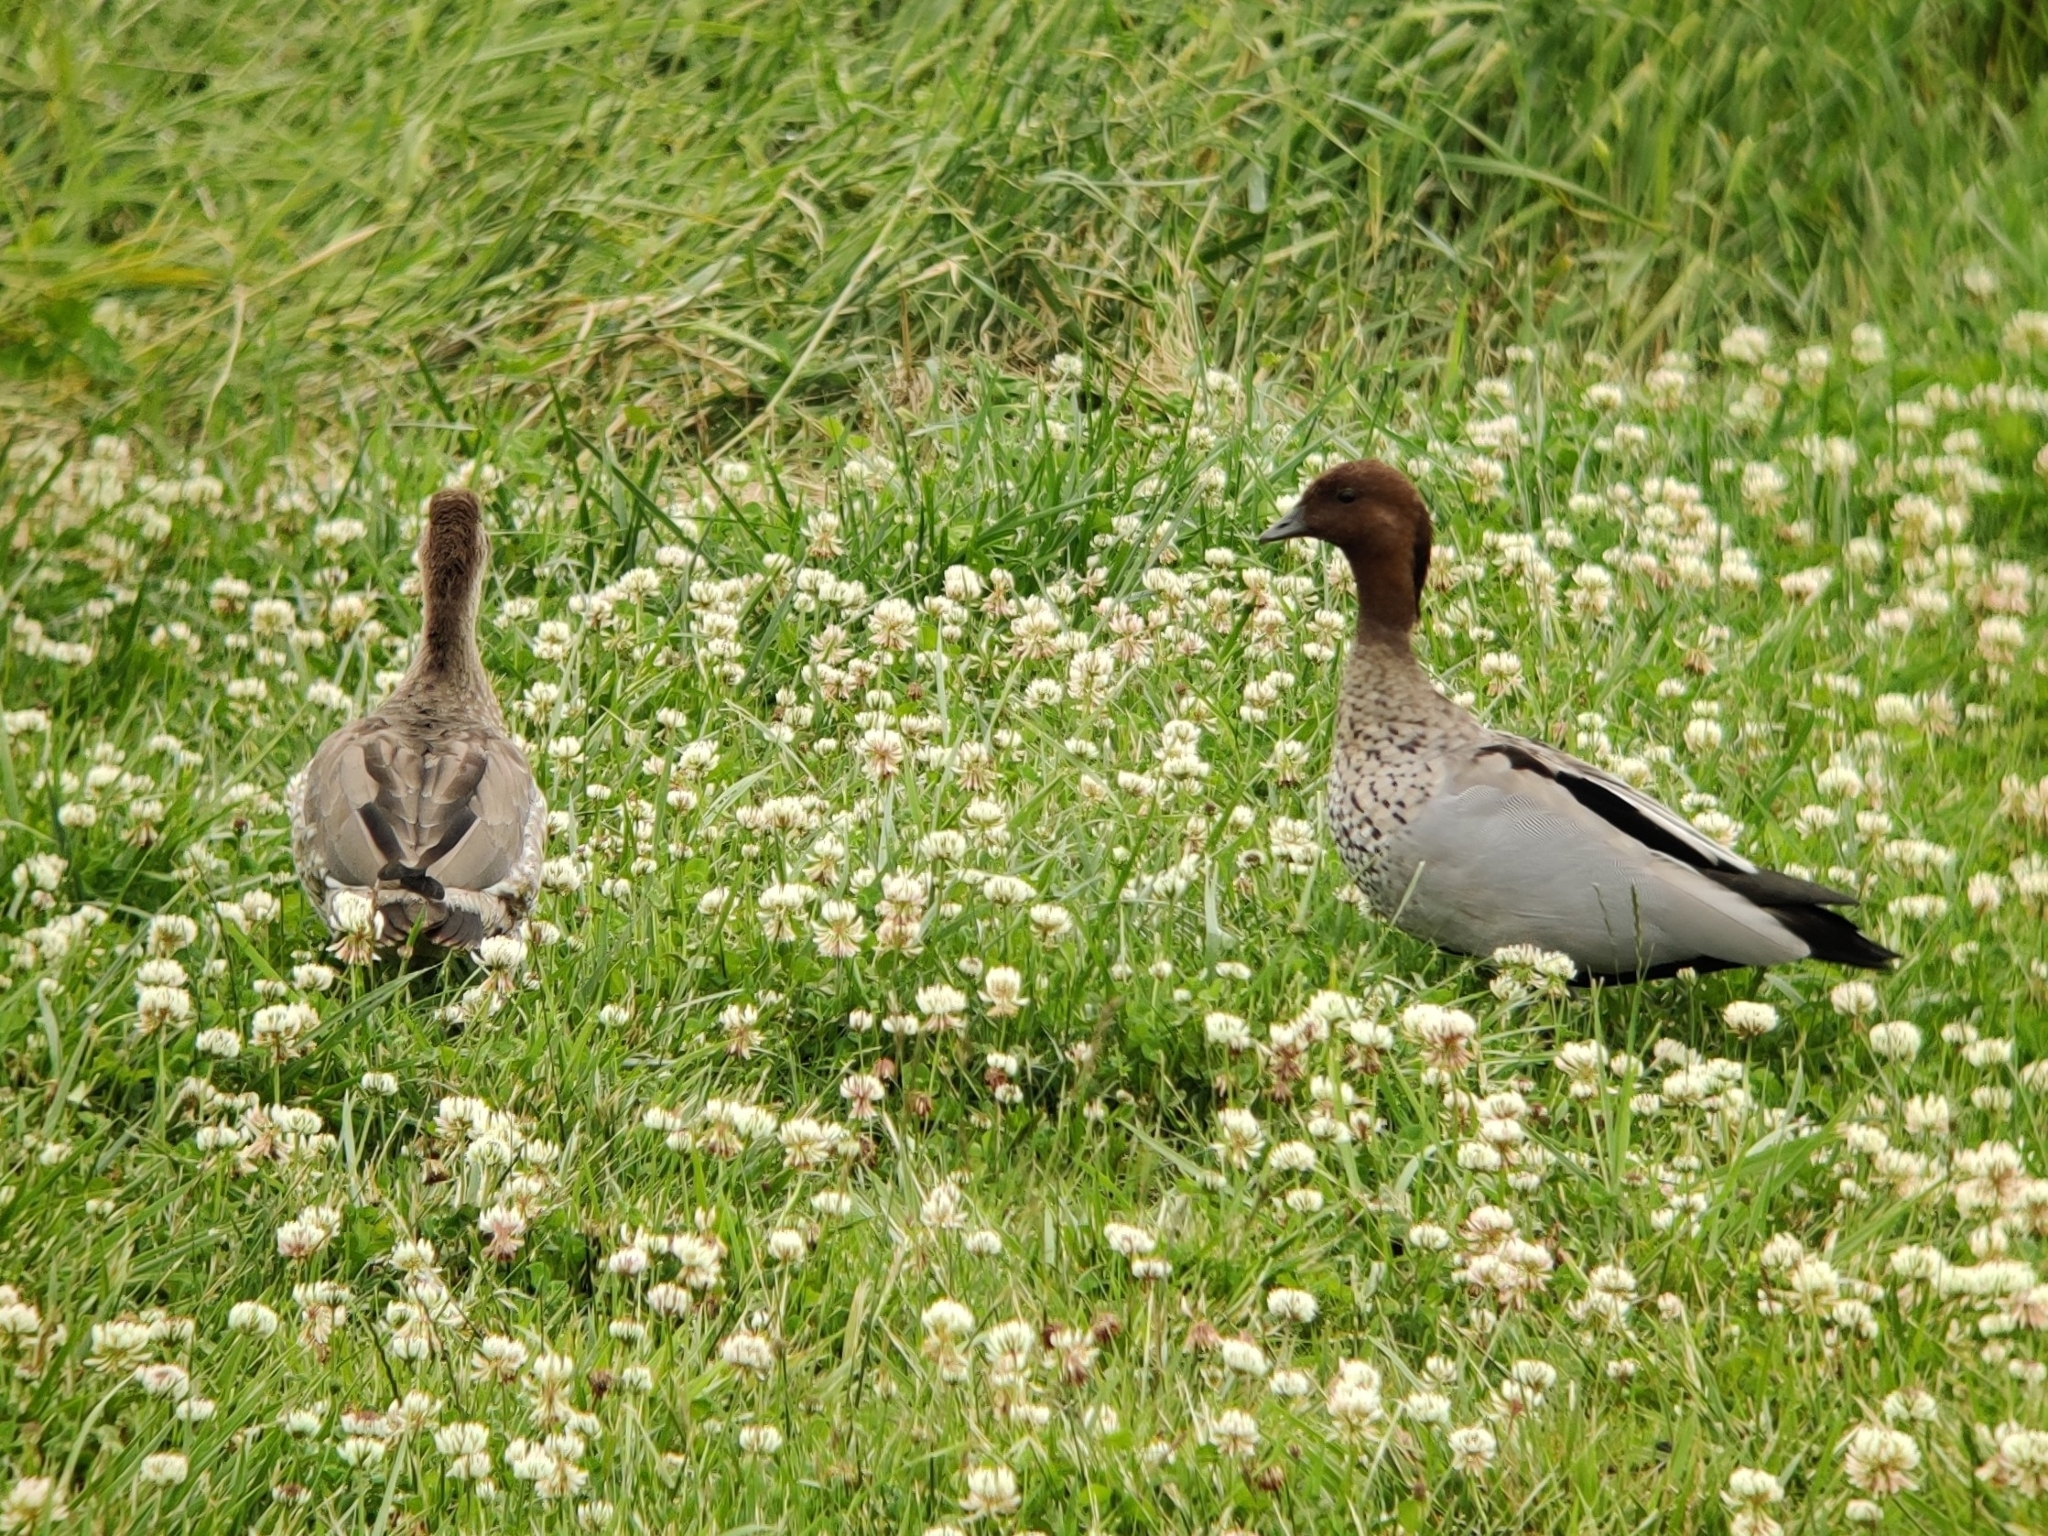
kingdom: Animalia
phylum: Chordata
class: Aves
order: Anseriformes
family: Anatidae
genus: Chenonetta
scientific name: Chenonetta jubata
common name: Maned duck
